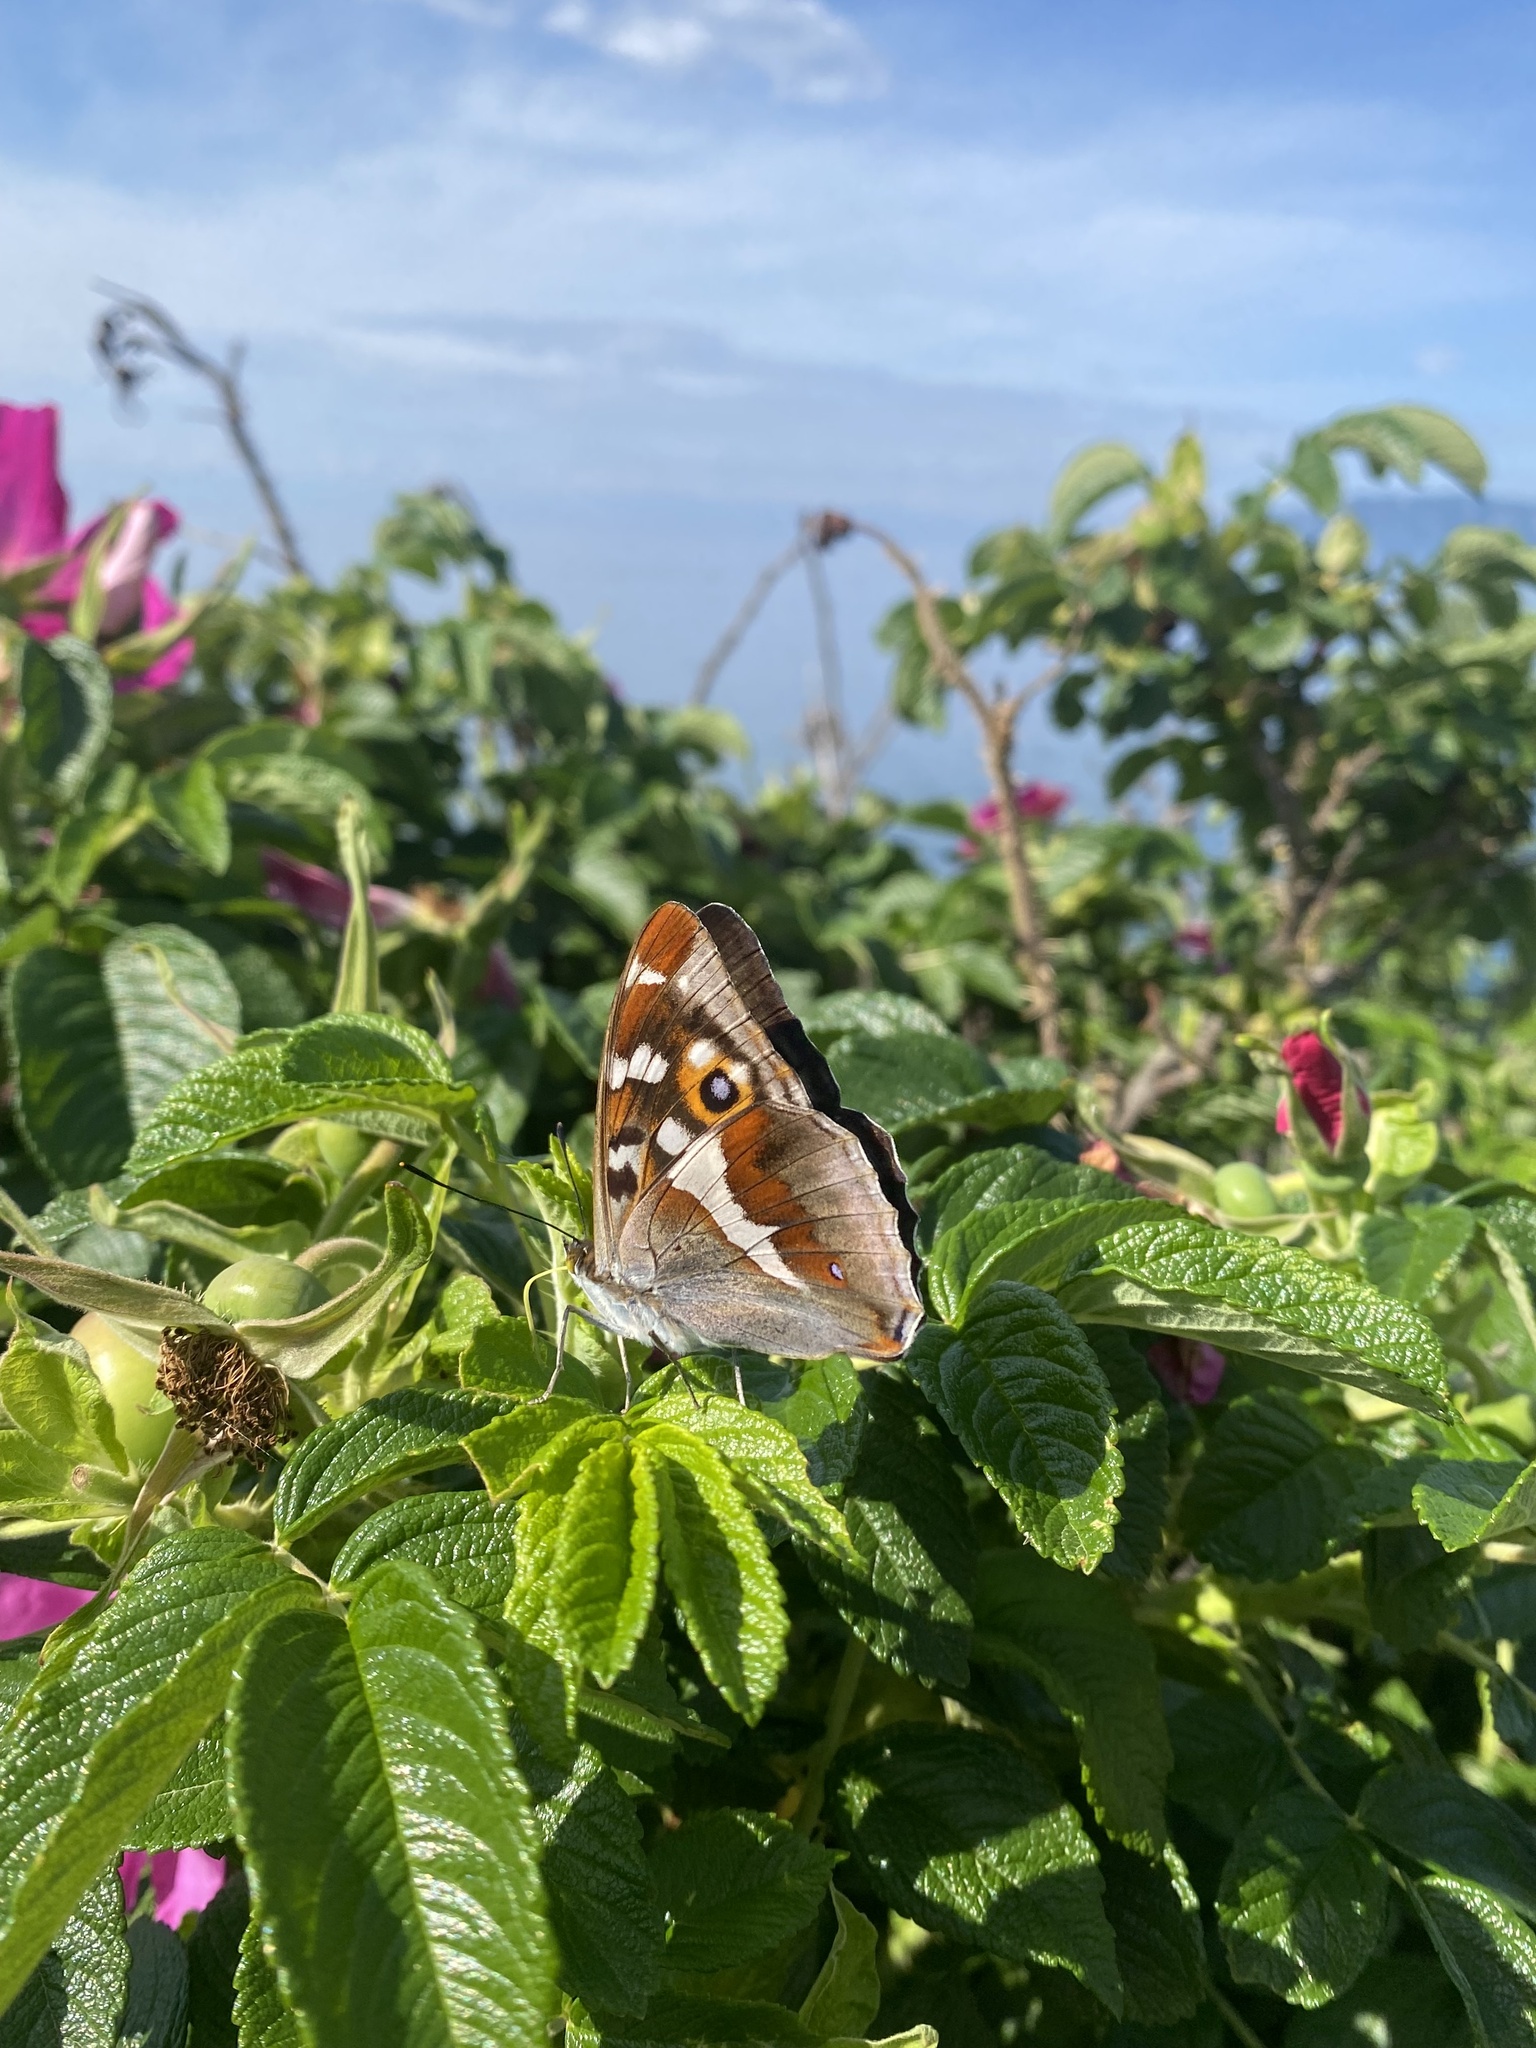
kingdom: Animalia
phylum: Arthropoda
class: Insecta
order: Lepidoptera
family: Nymphalidae
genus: Apatura
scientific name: Apatura iris
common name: Purple emperor
